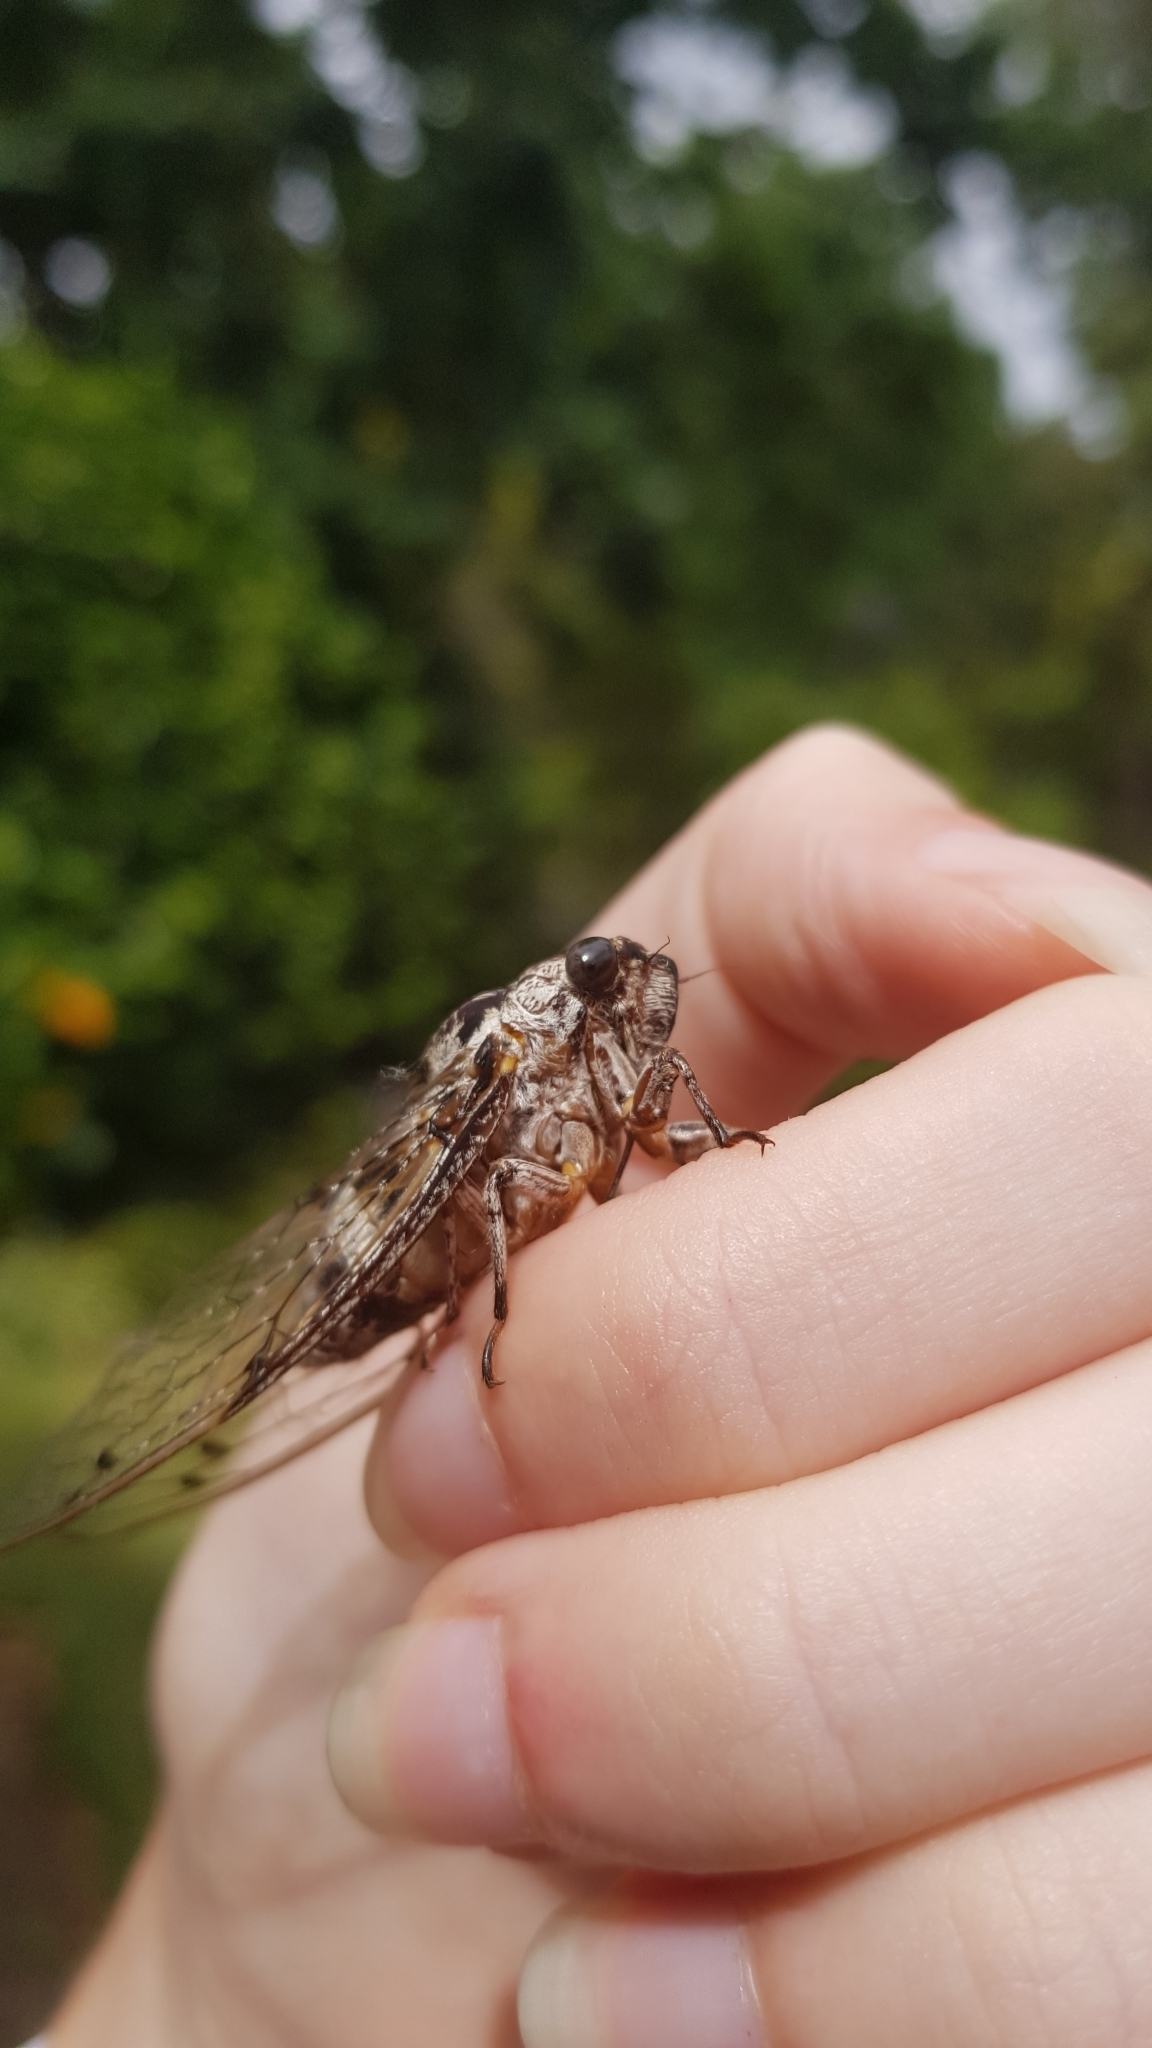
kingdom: Animalia
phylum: Arthropoda
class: Insecta
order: Hemiptera
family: Cicadidae
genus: Aleeta
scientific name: Aleeta curvicosta
